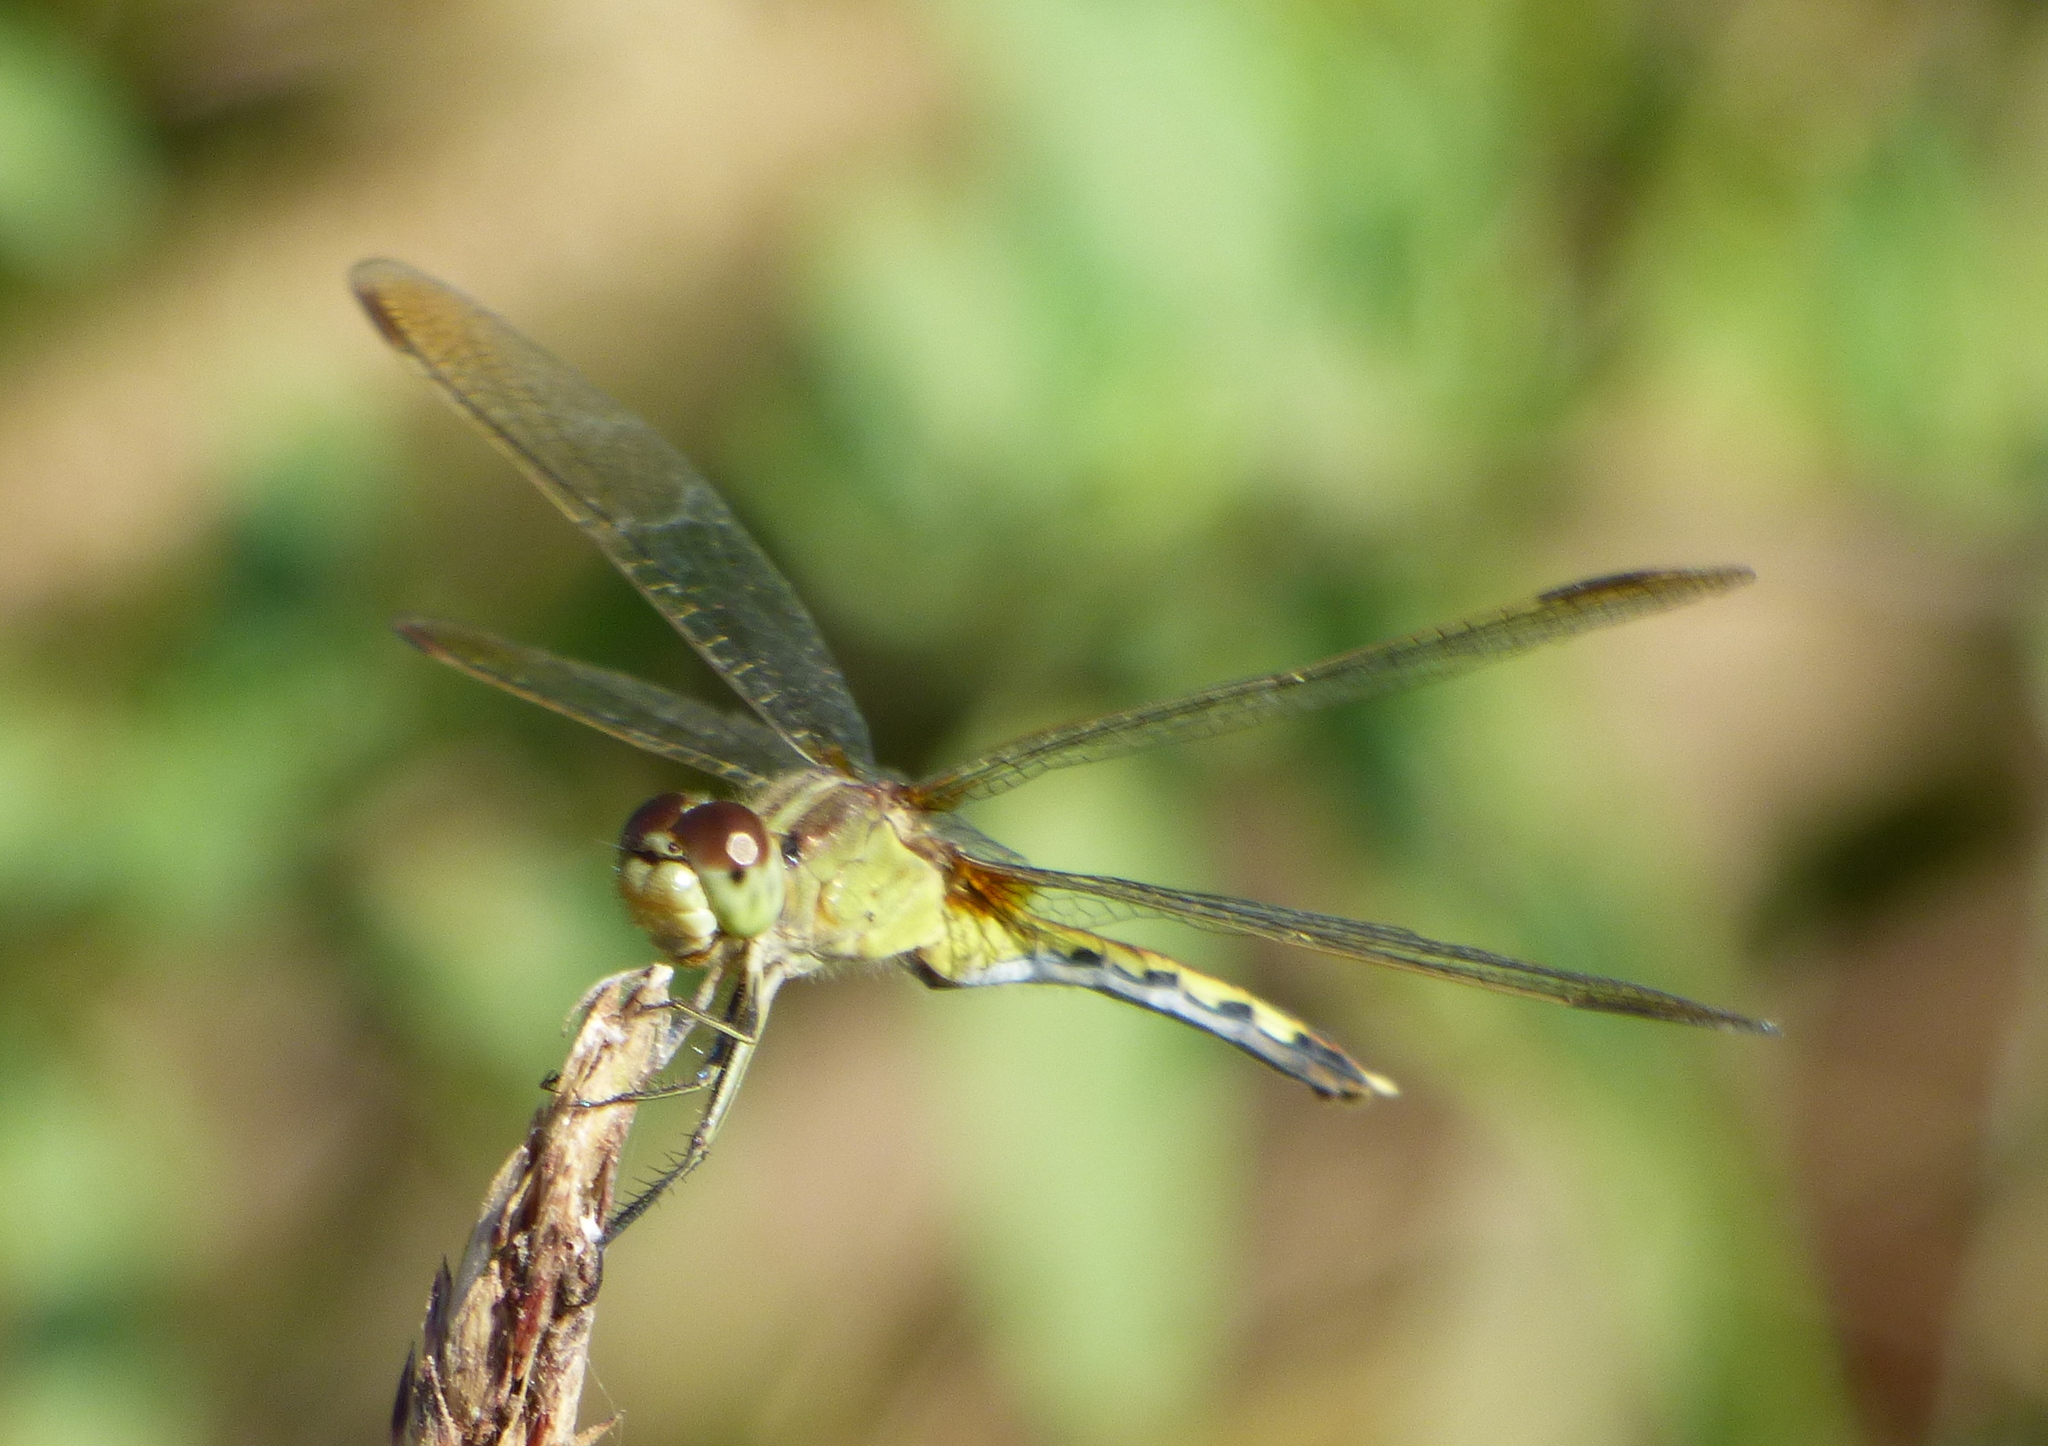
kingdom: Animalia
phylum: Arthropoda
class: Insecta
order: Odonata
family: Libellulidae
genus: Erythrodiplax
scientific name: Erythrodiplax nigricans
